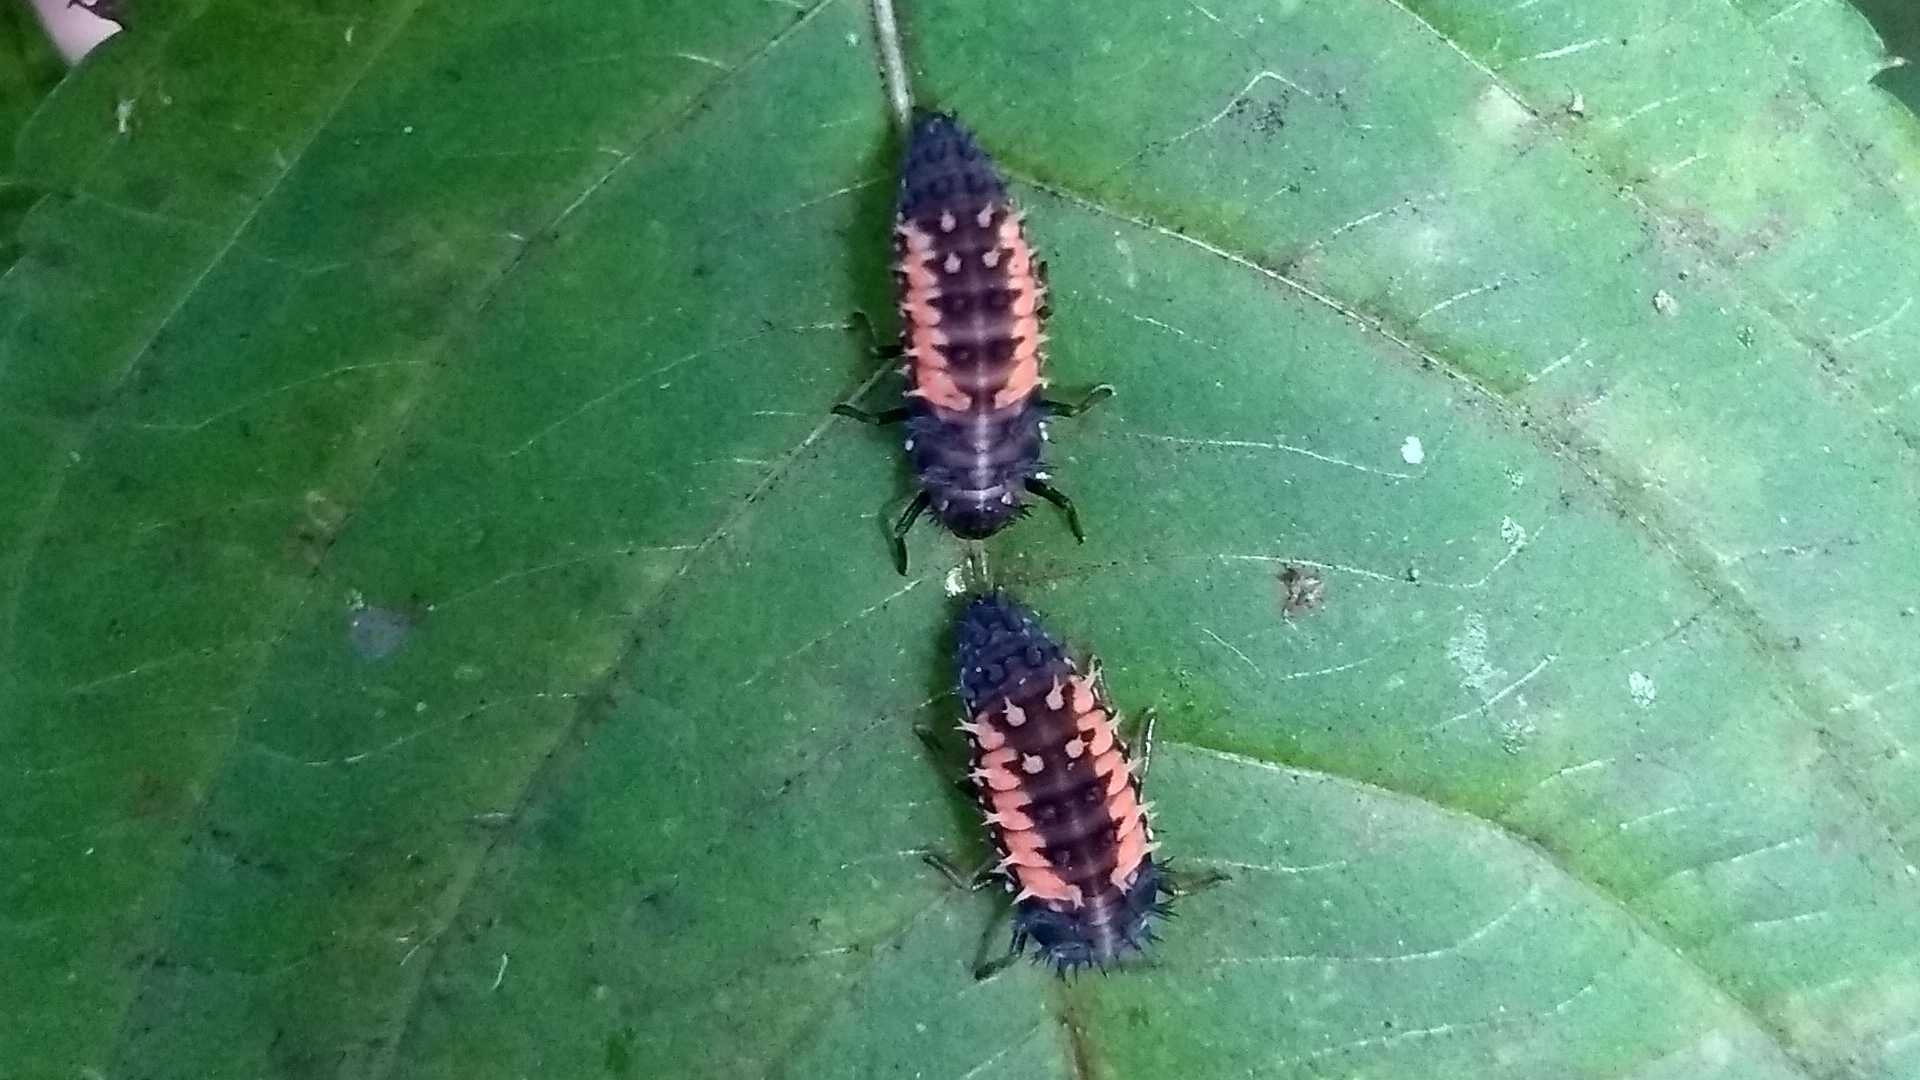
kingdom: Animalia
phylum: Arthropoda
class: Insecta
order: Coleoptera
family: Coccinellidae
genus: Harmonia
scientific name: Harmonia axyridis
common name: Harlequin ladybird
